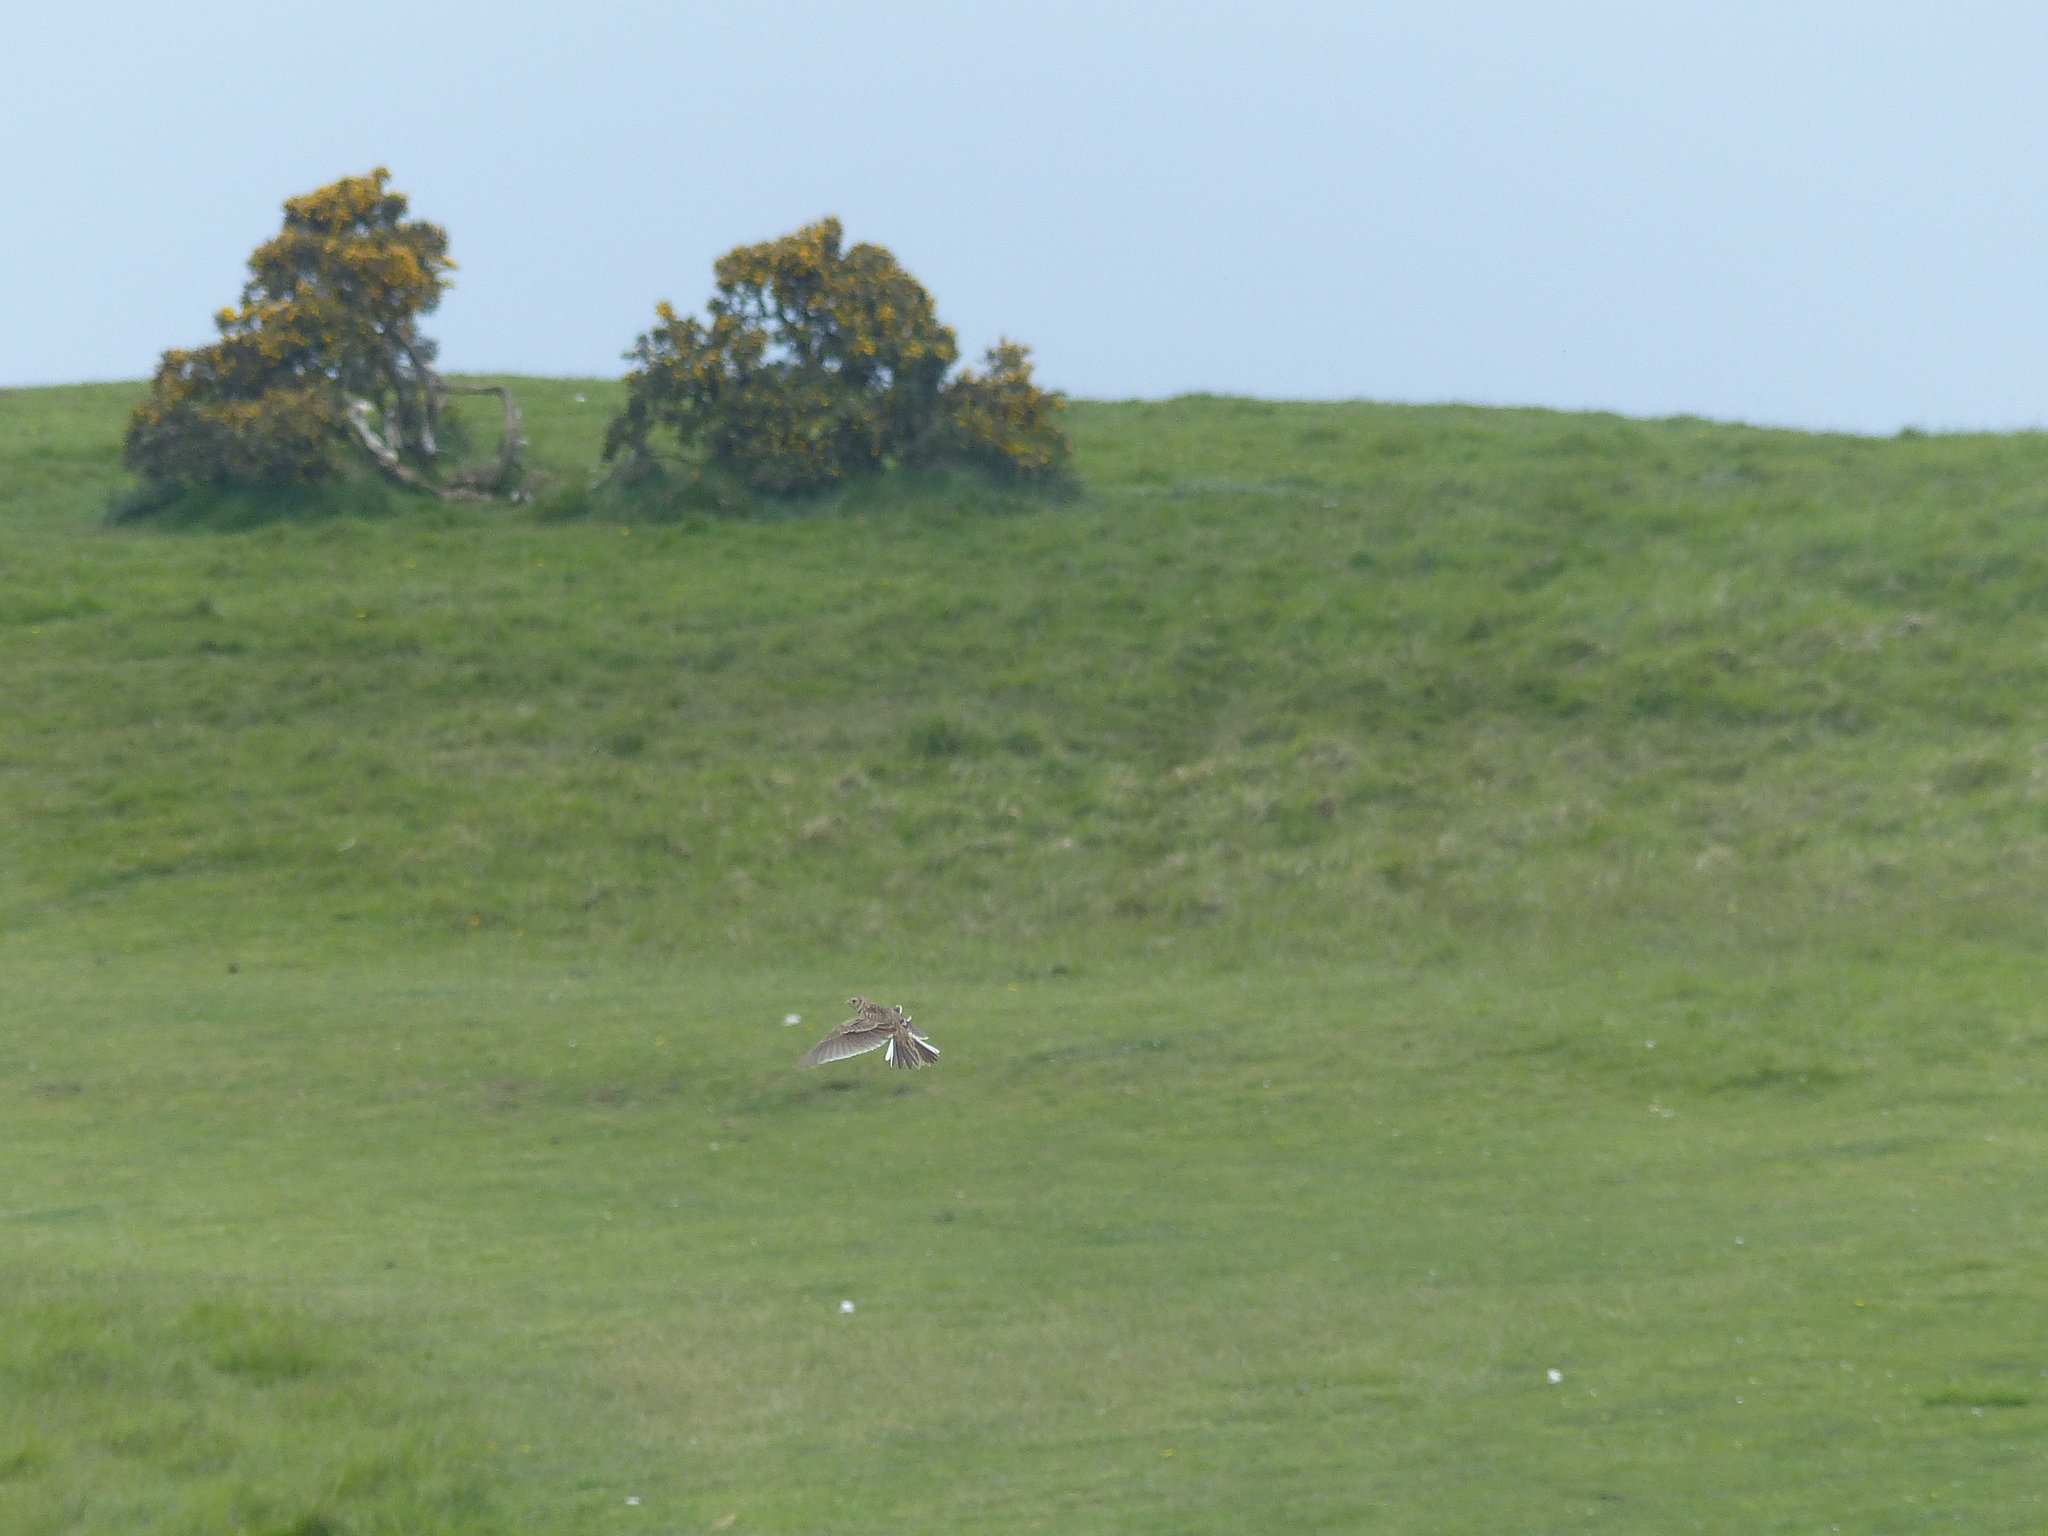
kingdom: Animalia
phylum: Chordata
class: Aves
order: Passeriformes
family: Alaudidae
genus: Alauda
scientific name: Alauda arvensis
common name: Eurasian skylark
